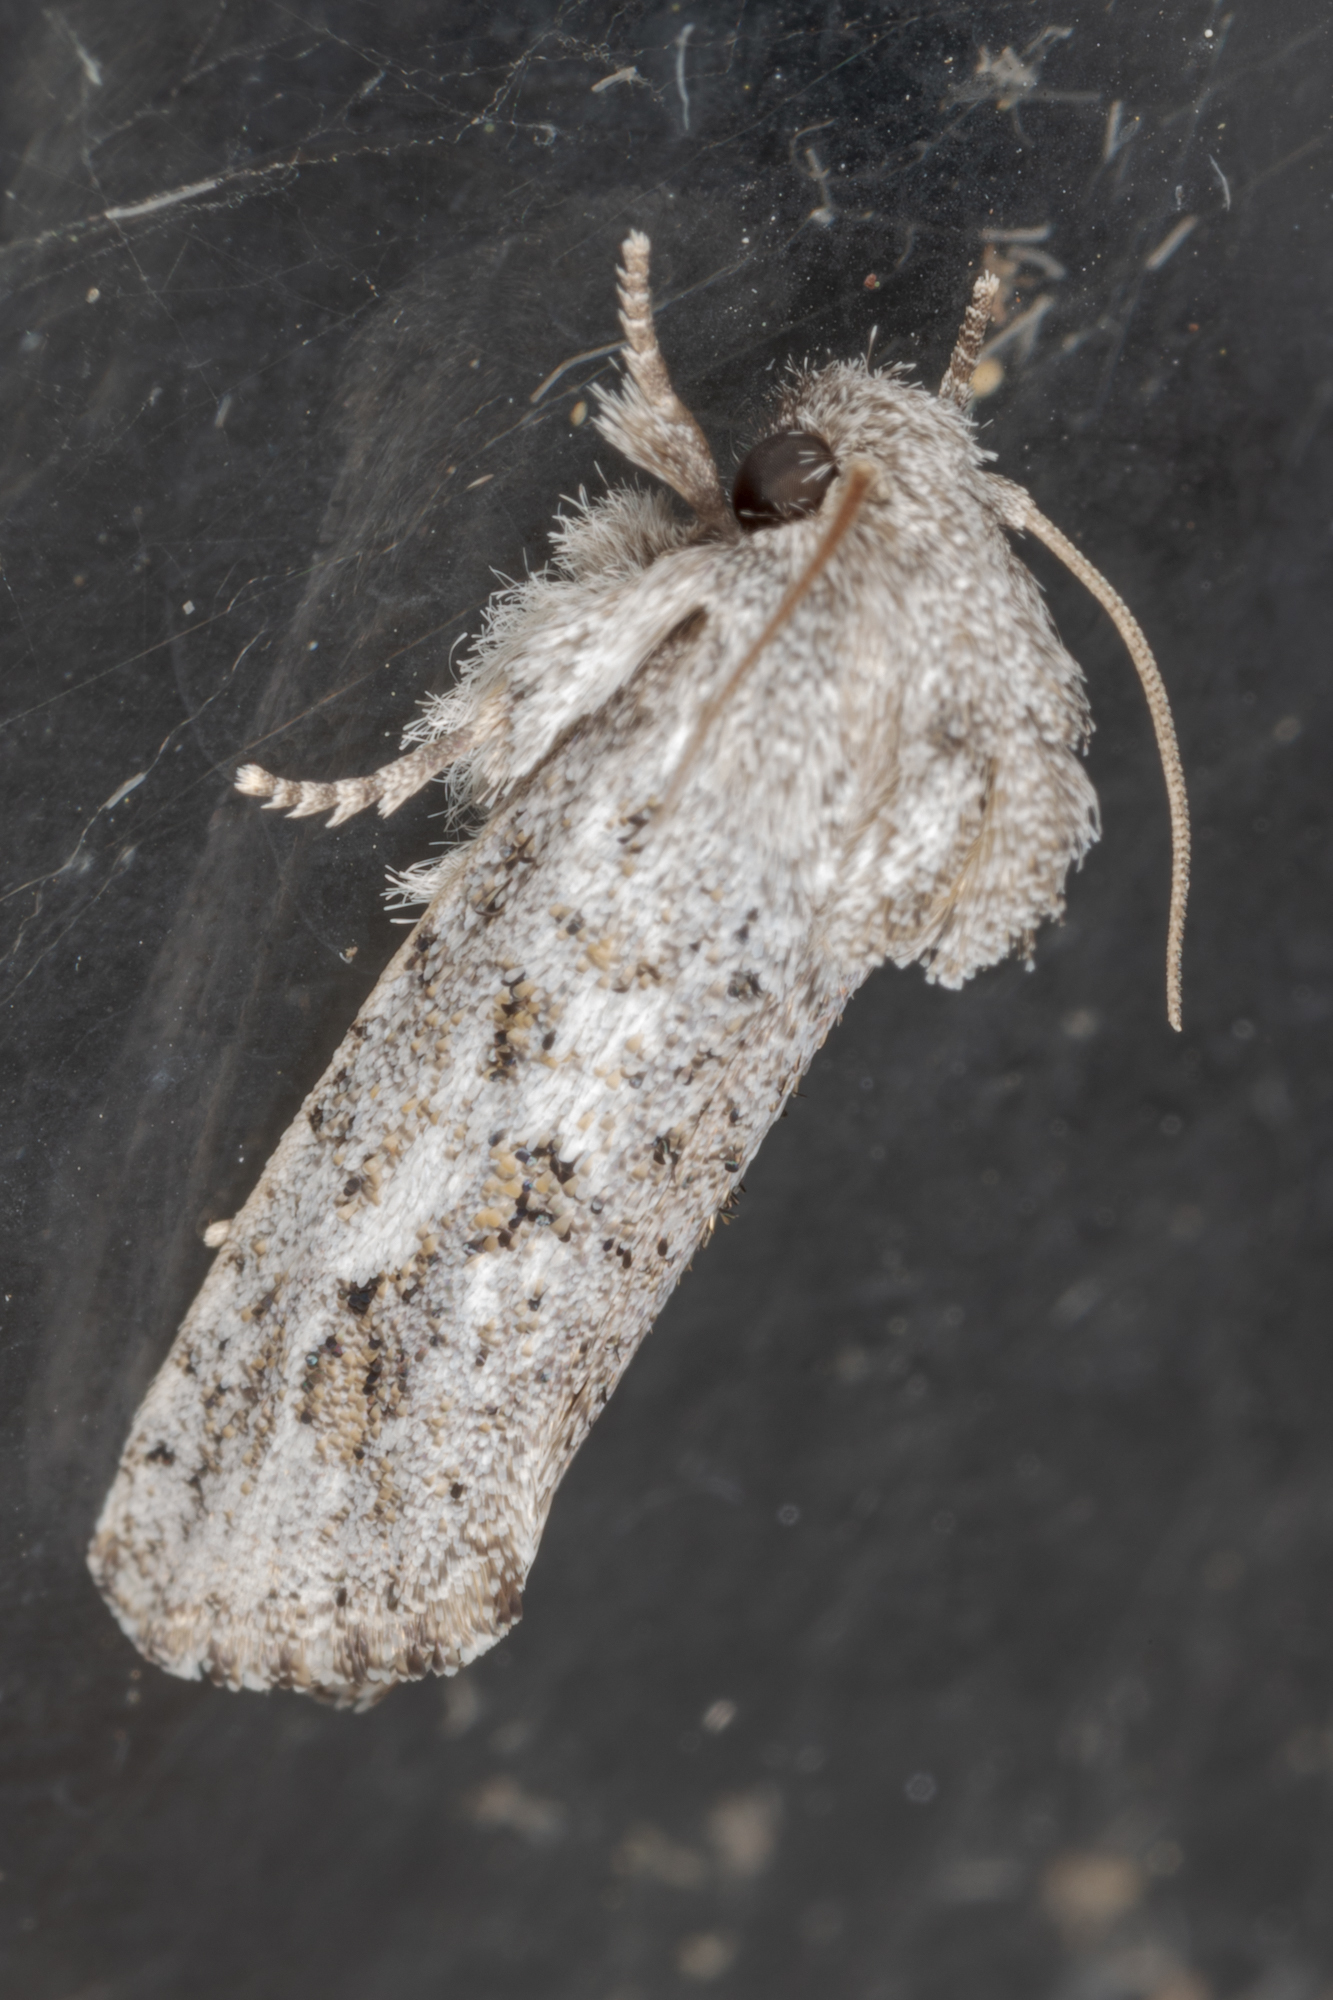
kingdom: Animalia
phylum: Arthropoda
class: Insecta
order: Lepidoptera
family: Tineidae
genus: Acrolophus
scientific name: Acrolophus griseus
